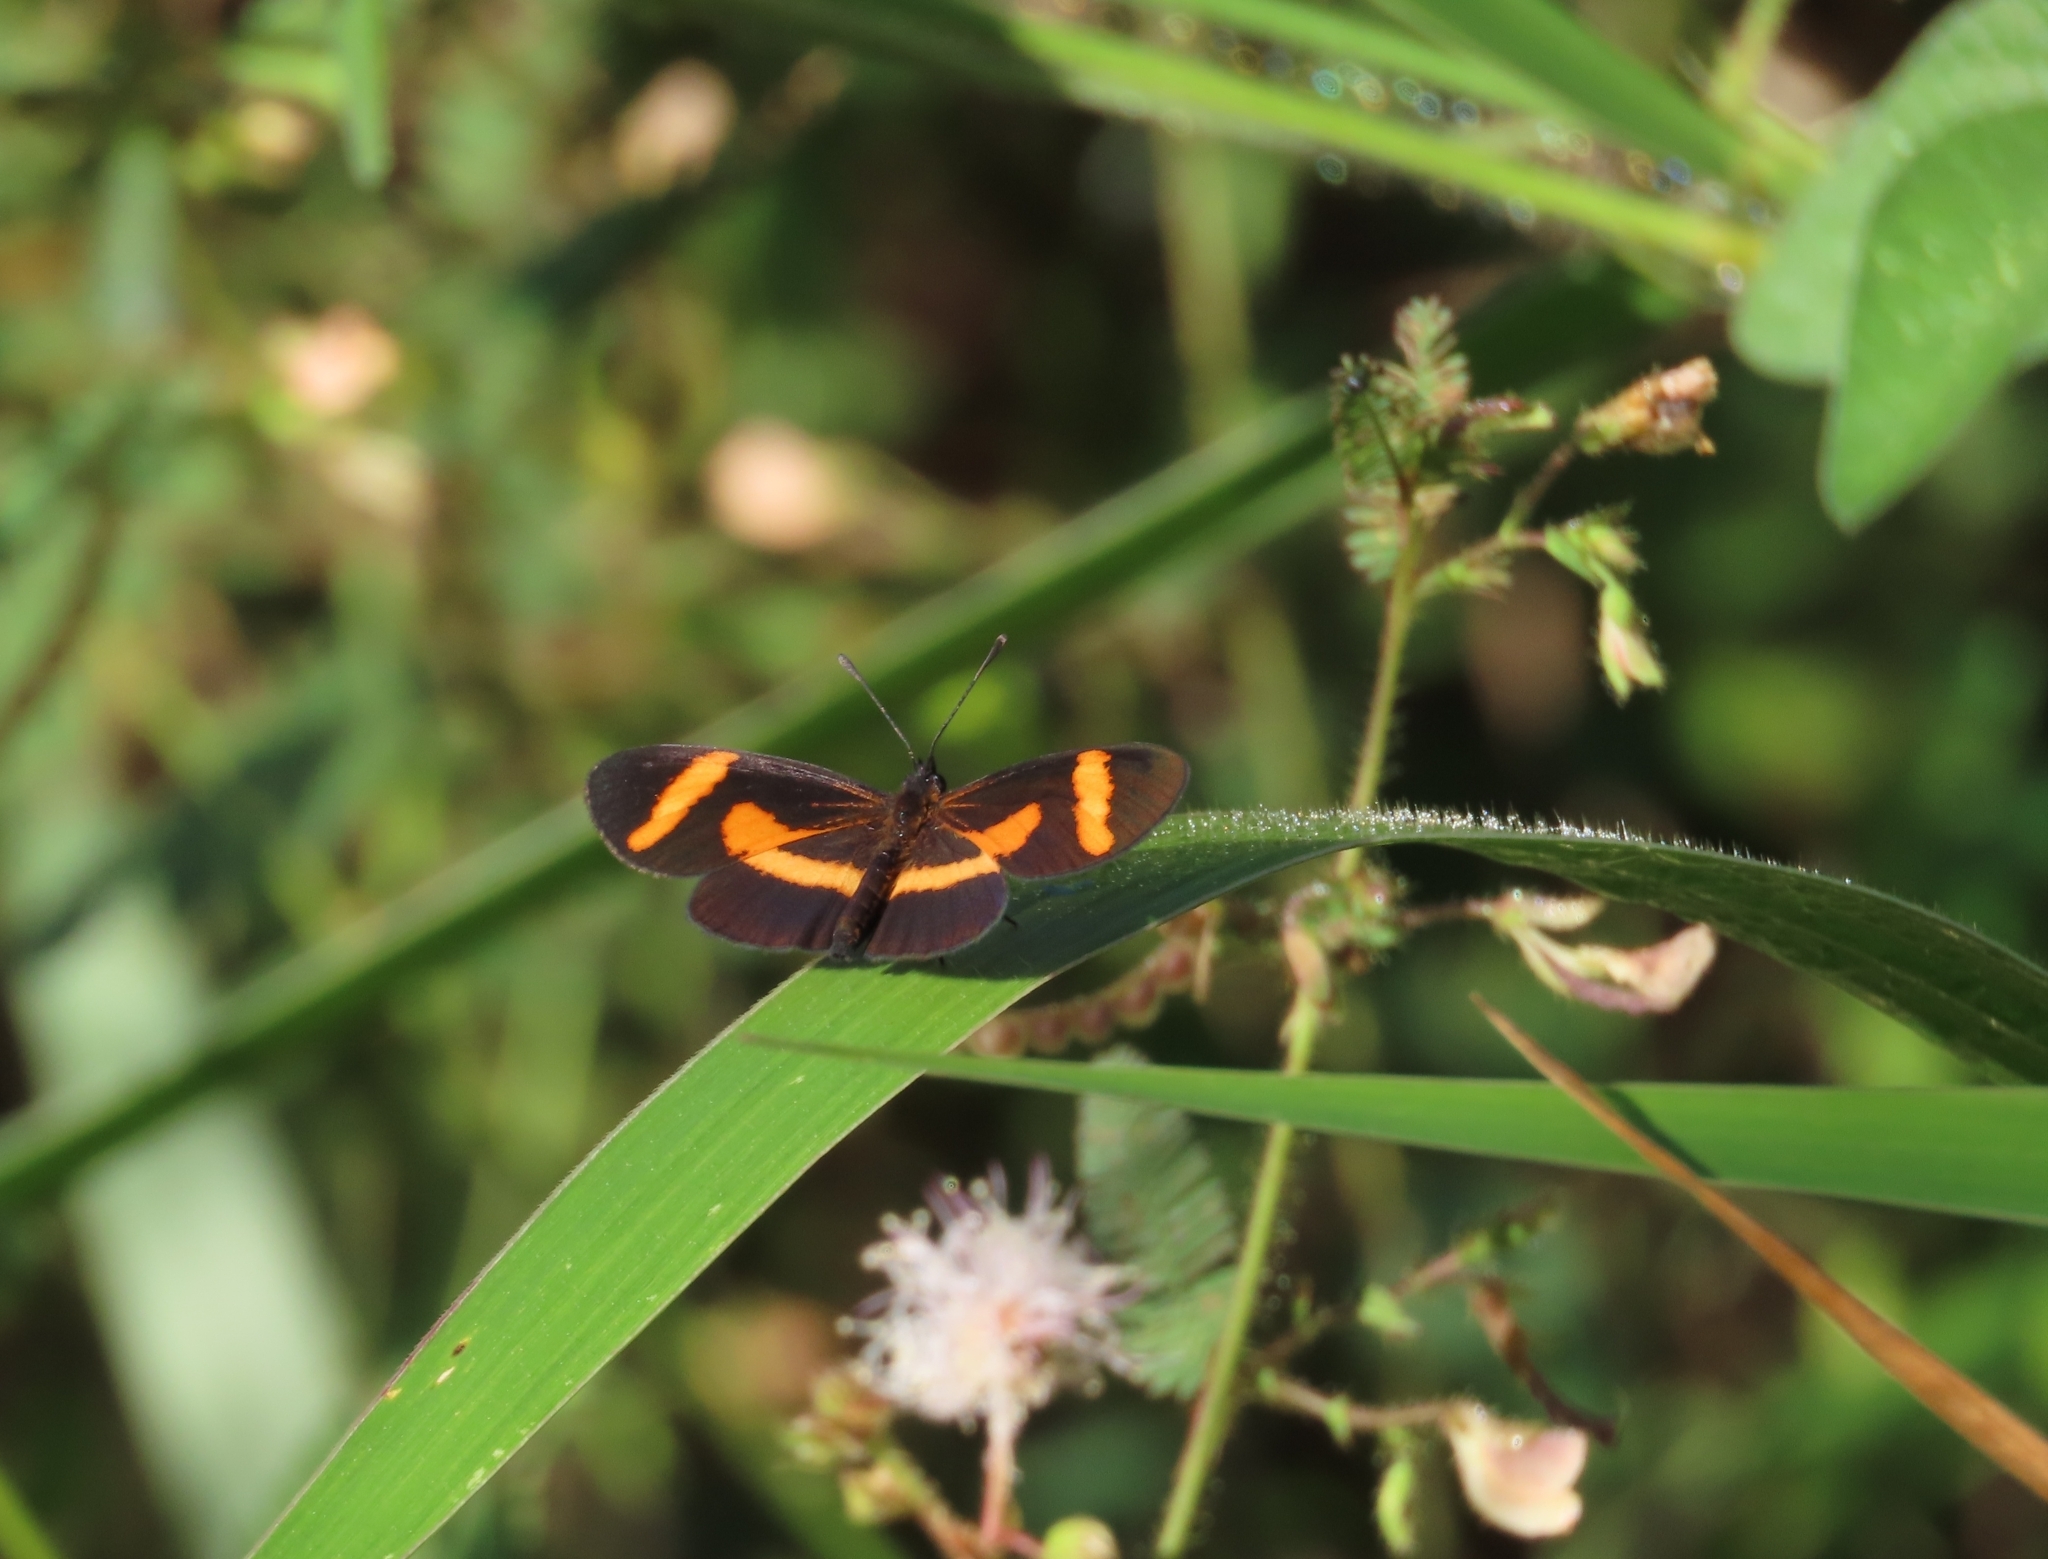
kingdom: Animalia
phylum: Arthropoda
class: Insecta
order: Lepidoptera
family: Nymphalidae
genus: Microtia
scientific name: Microtia elva
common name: Elf
